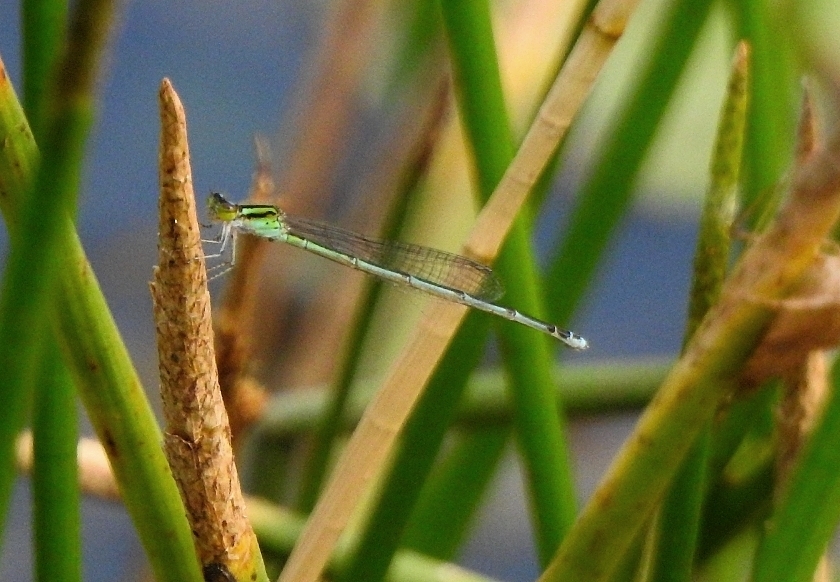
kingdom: Animalia
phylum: Arthropoda
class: Insecta
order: Odonata
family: Coenagrionidae
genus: Pseudagrion
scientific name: Pseudagrion malabaricum
